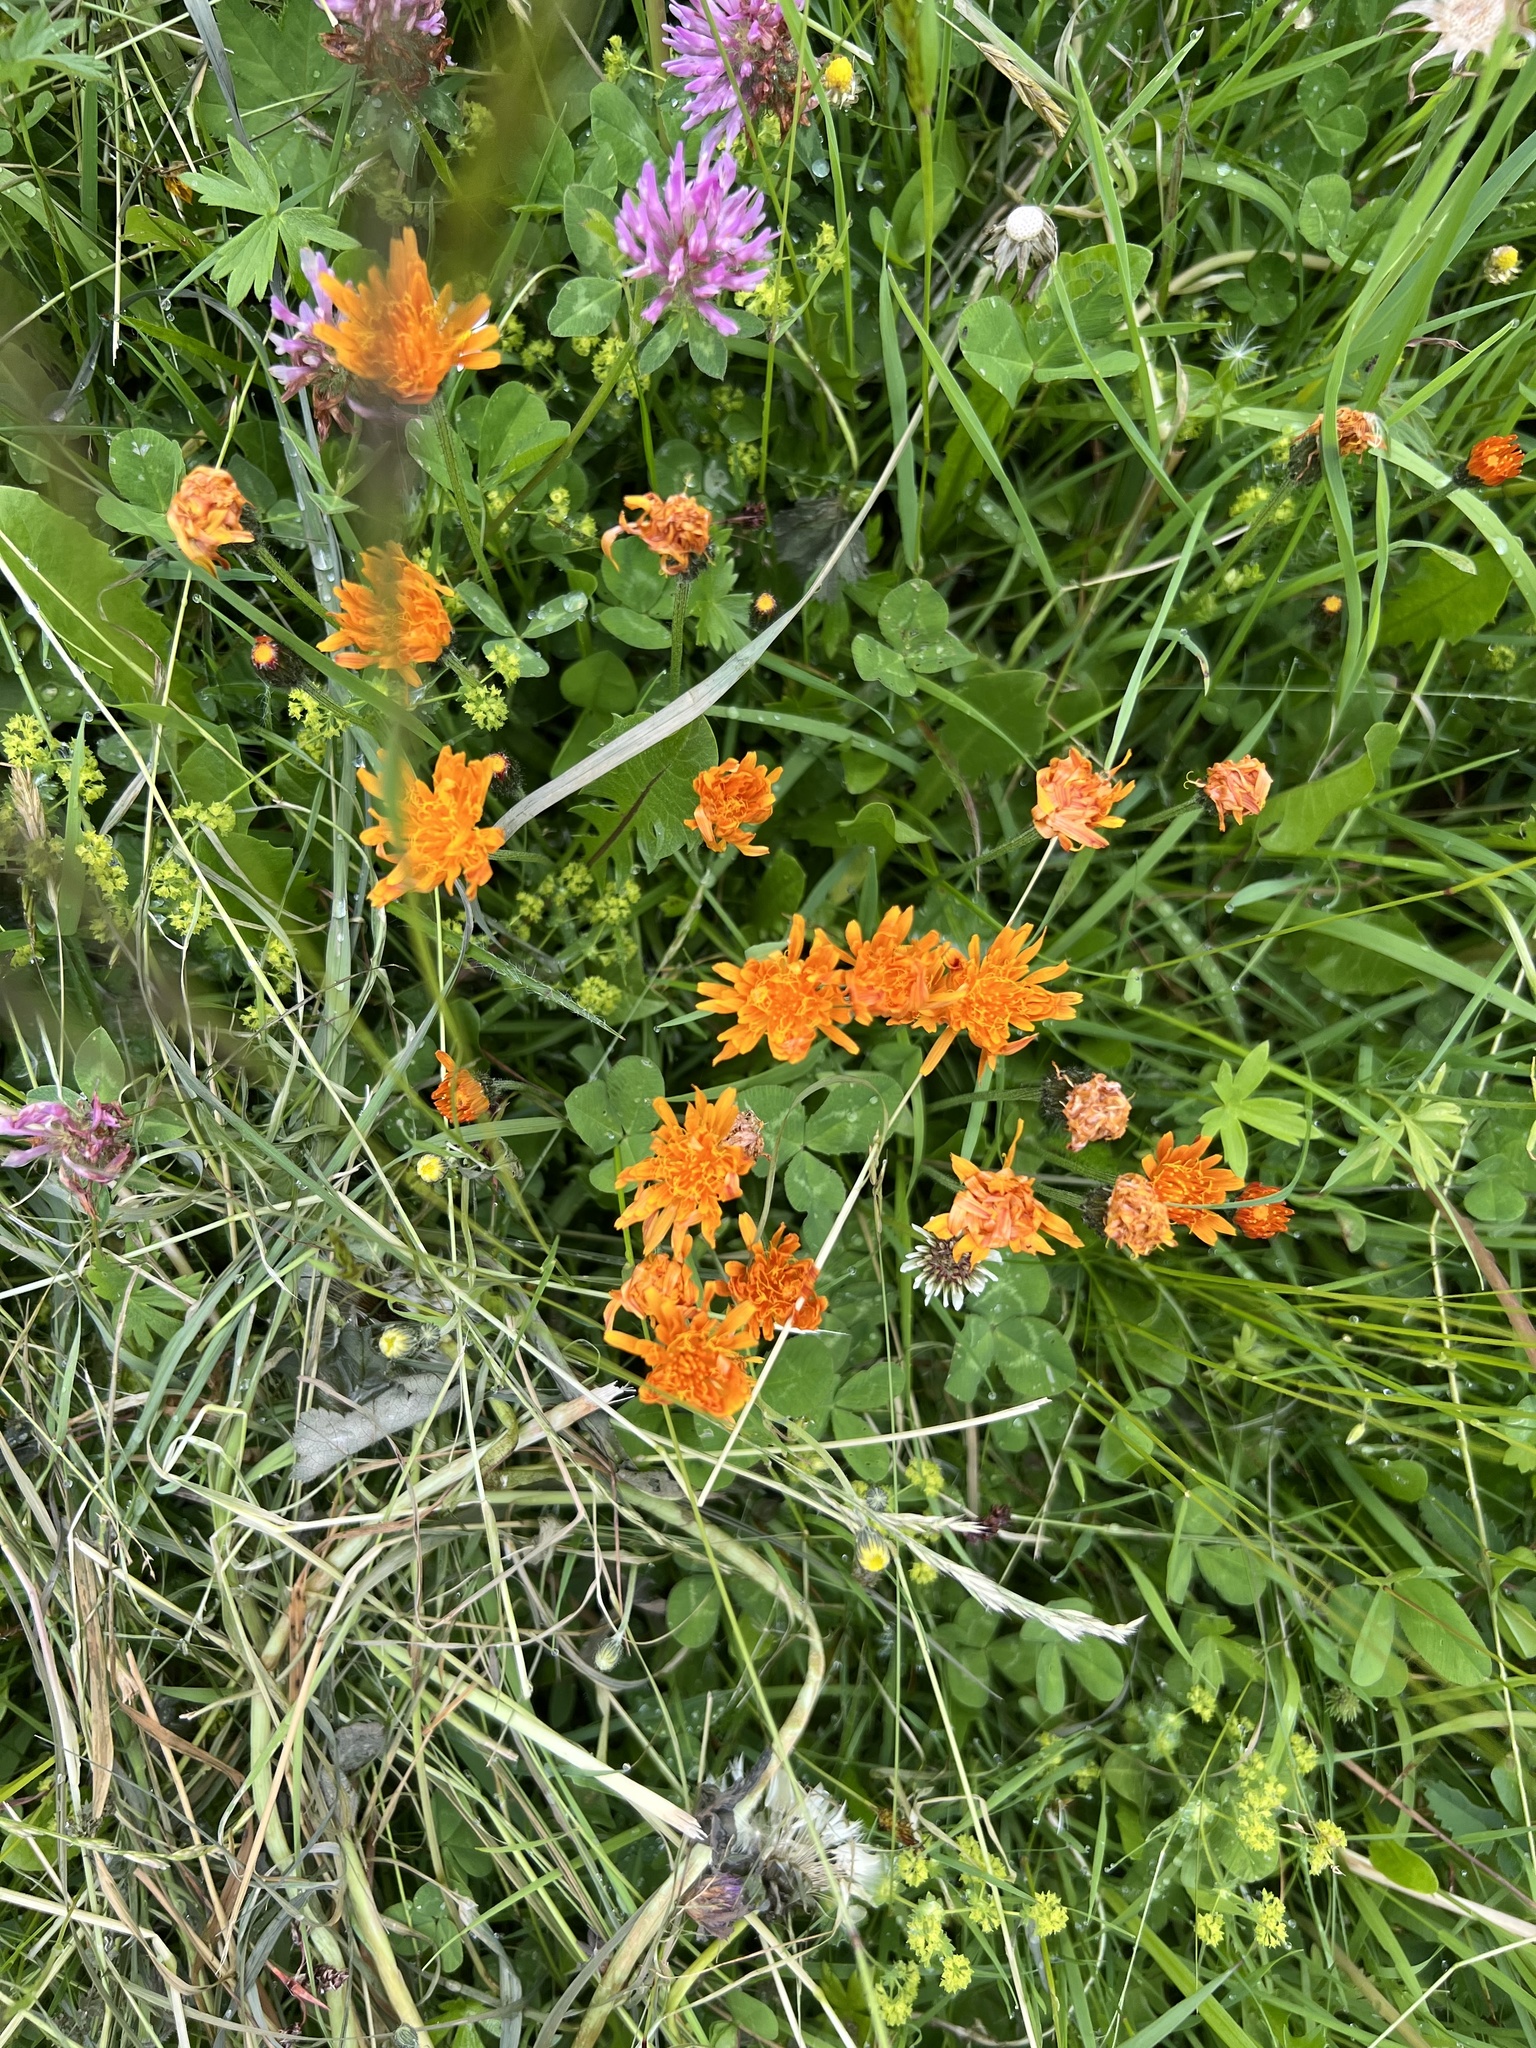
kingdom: Plantae
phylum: Tracheophyta
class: Magnoliopsida
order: Asterales
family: Asteraceae
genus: Crepis
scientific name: Crepis aurea
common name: Golden hawk's-beard
